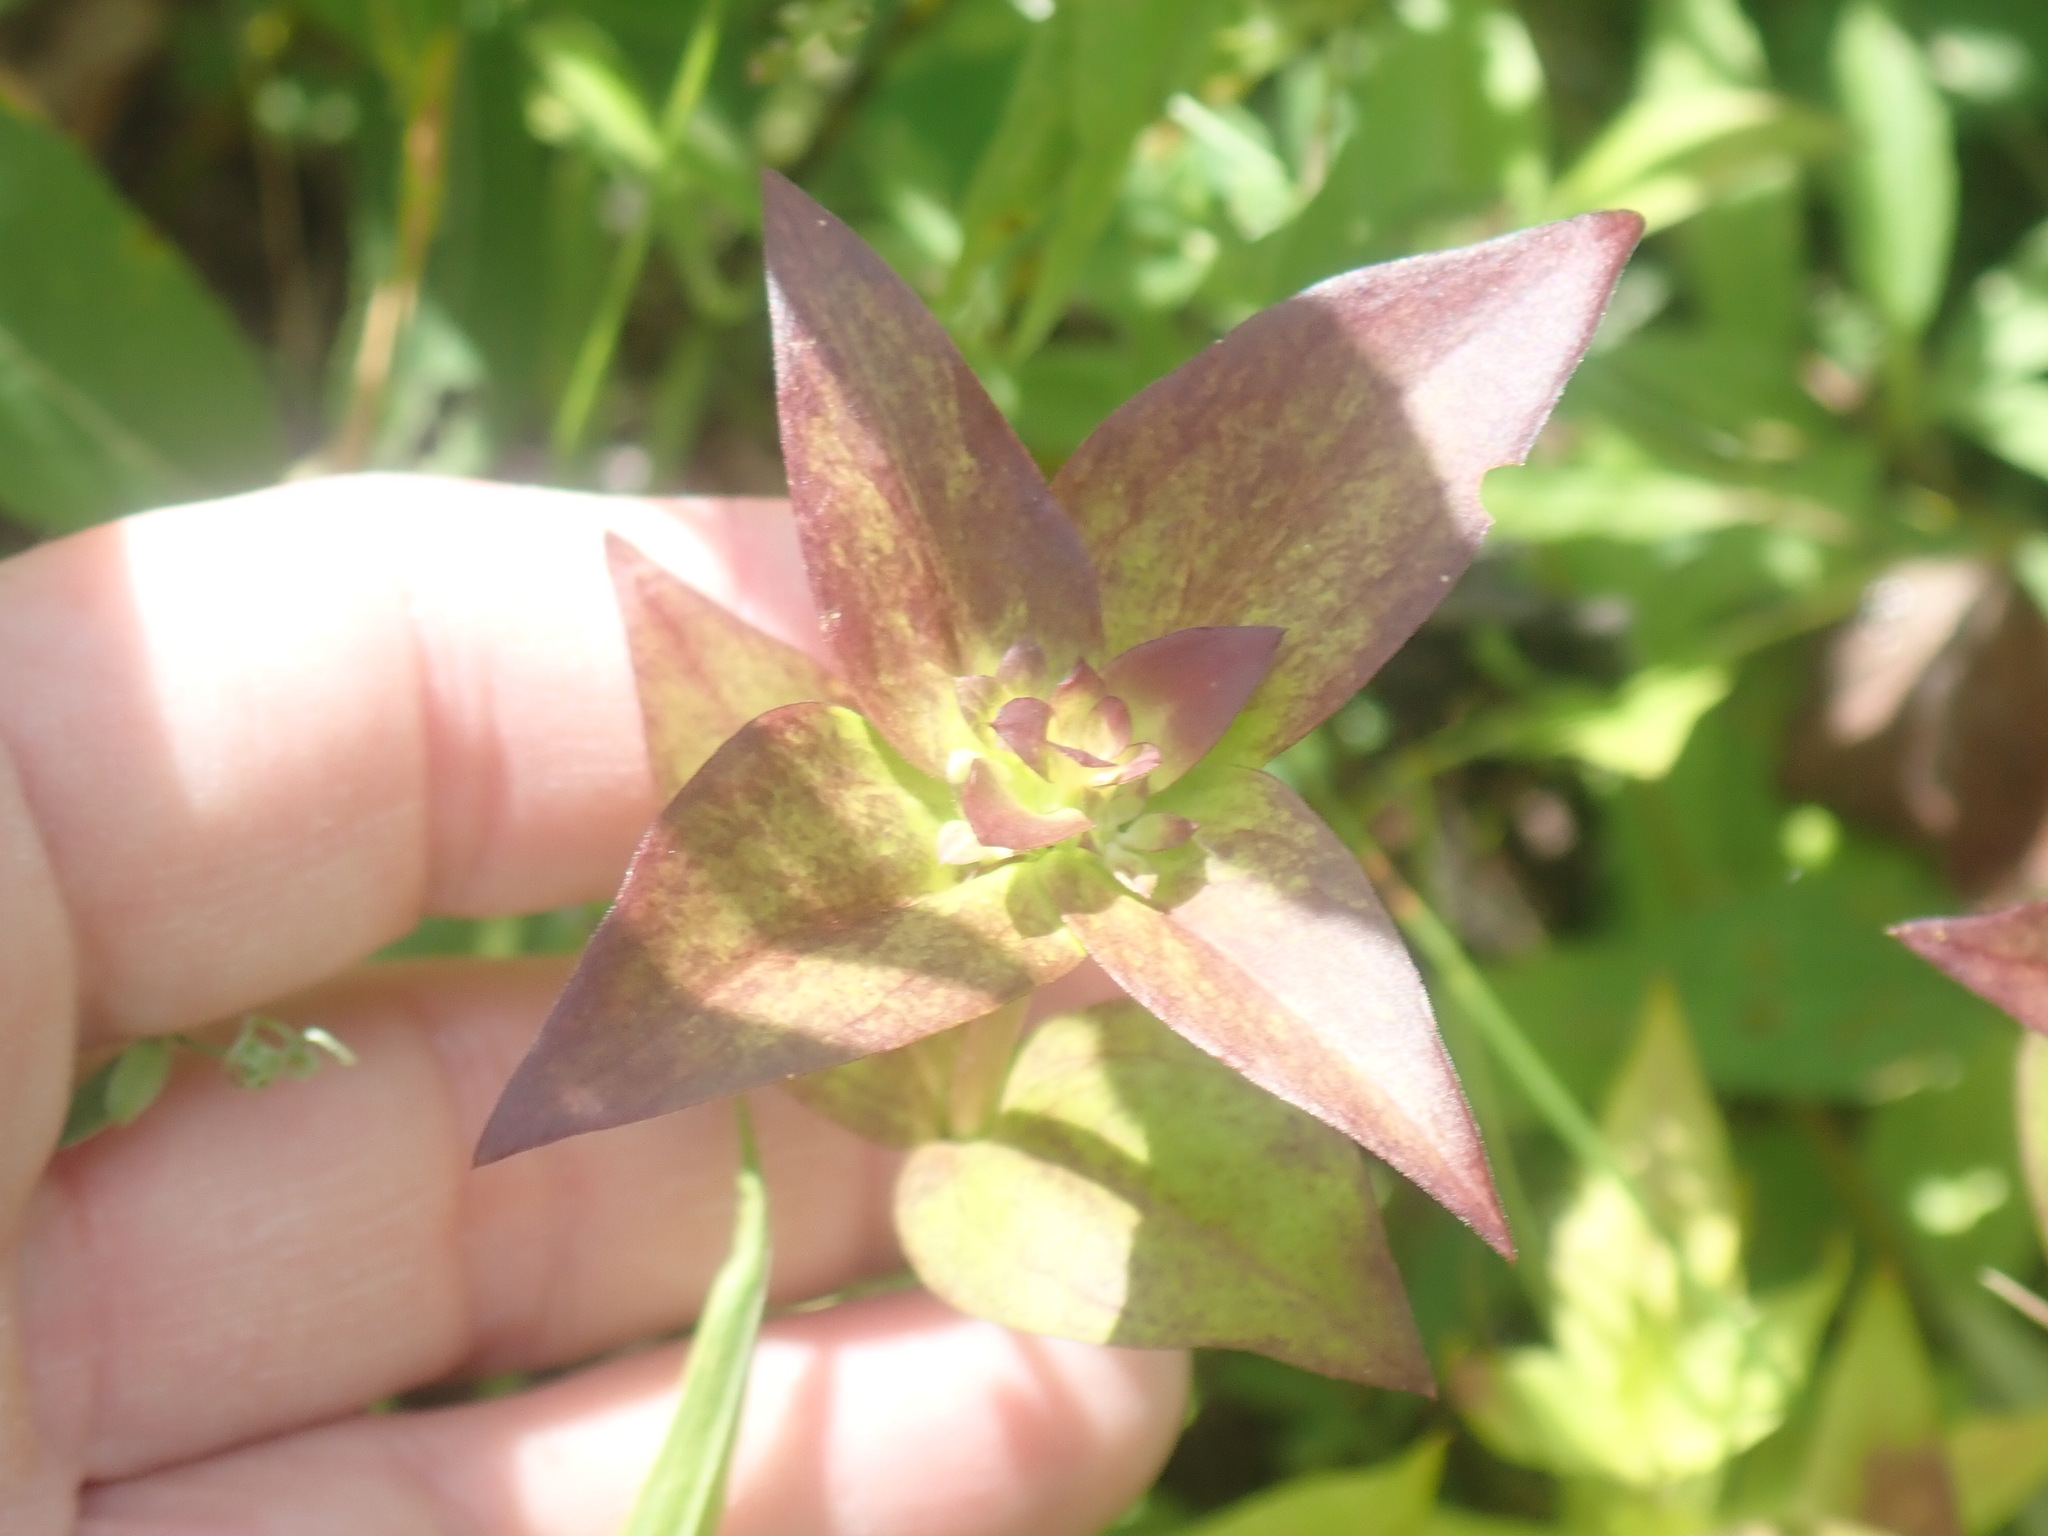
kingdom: Plantae
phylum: Tracheophyta
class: Magnoliopsida
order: Gentianales
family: Gentianaceae
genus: Gentiana
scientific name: Gentiana clausa
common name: Blind gentian
